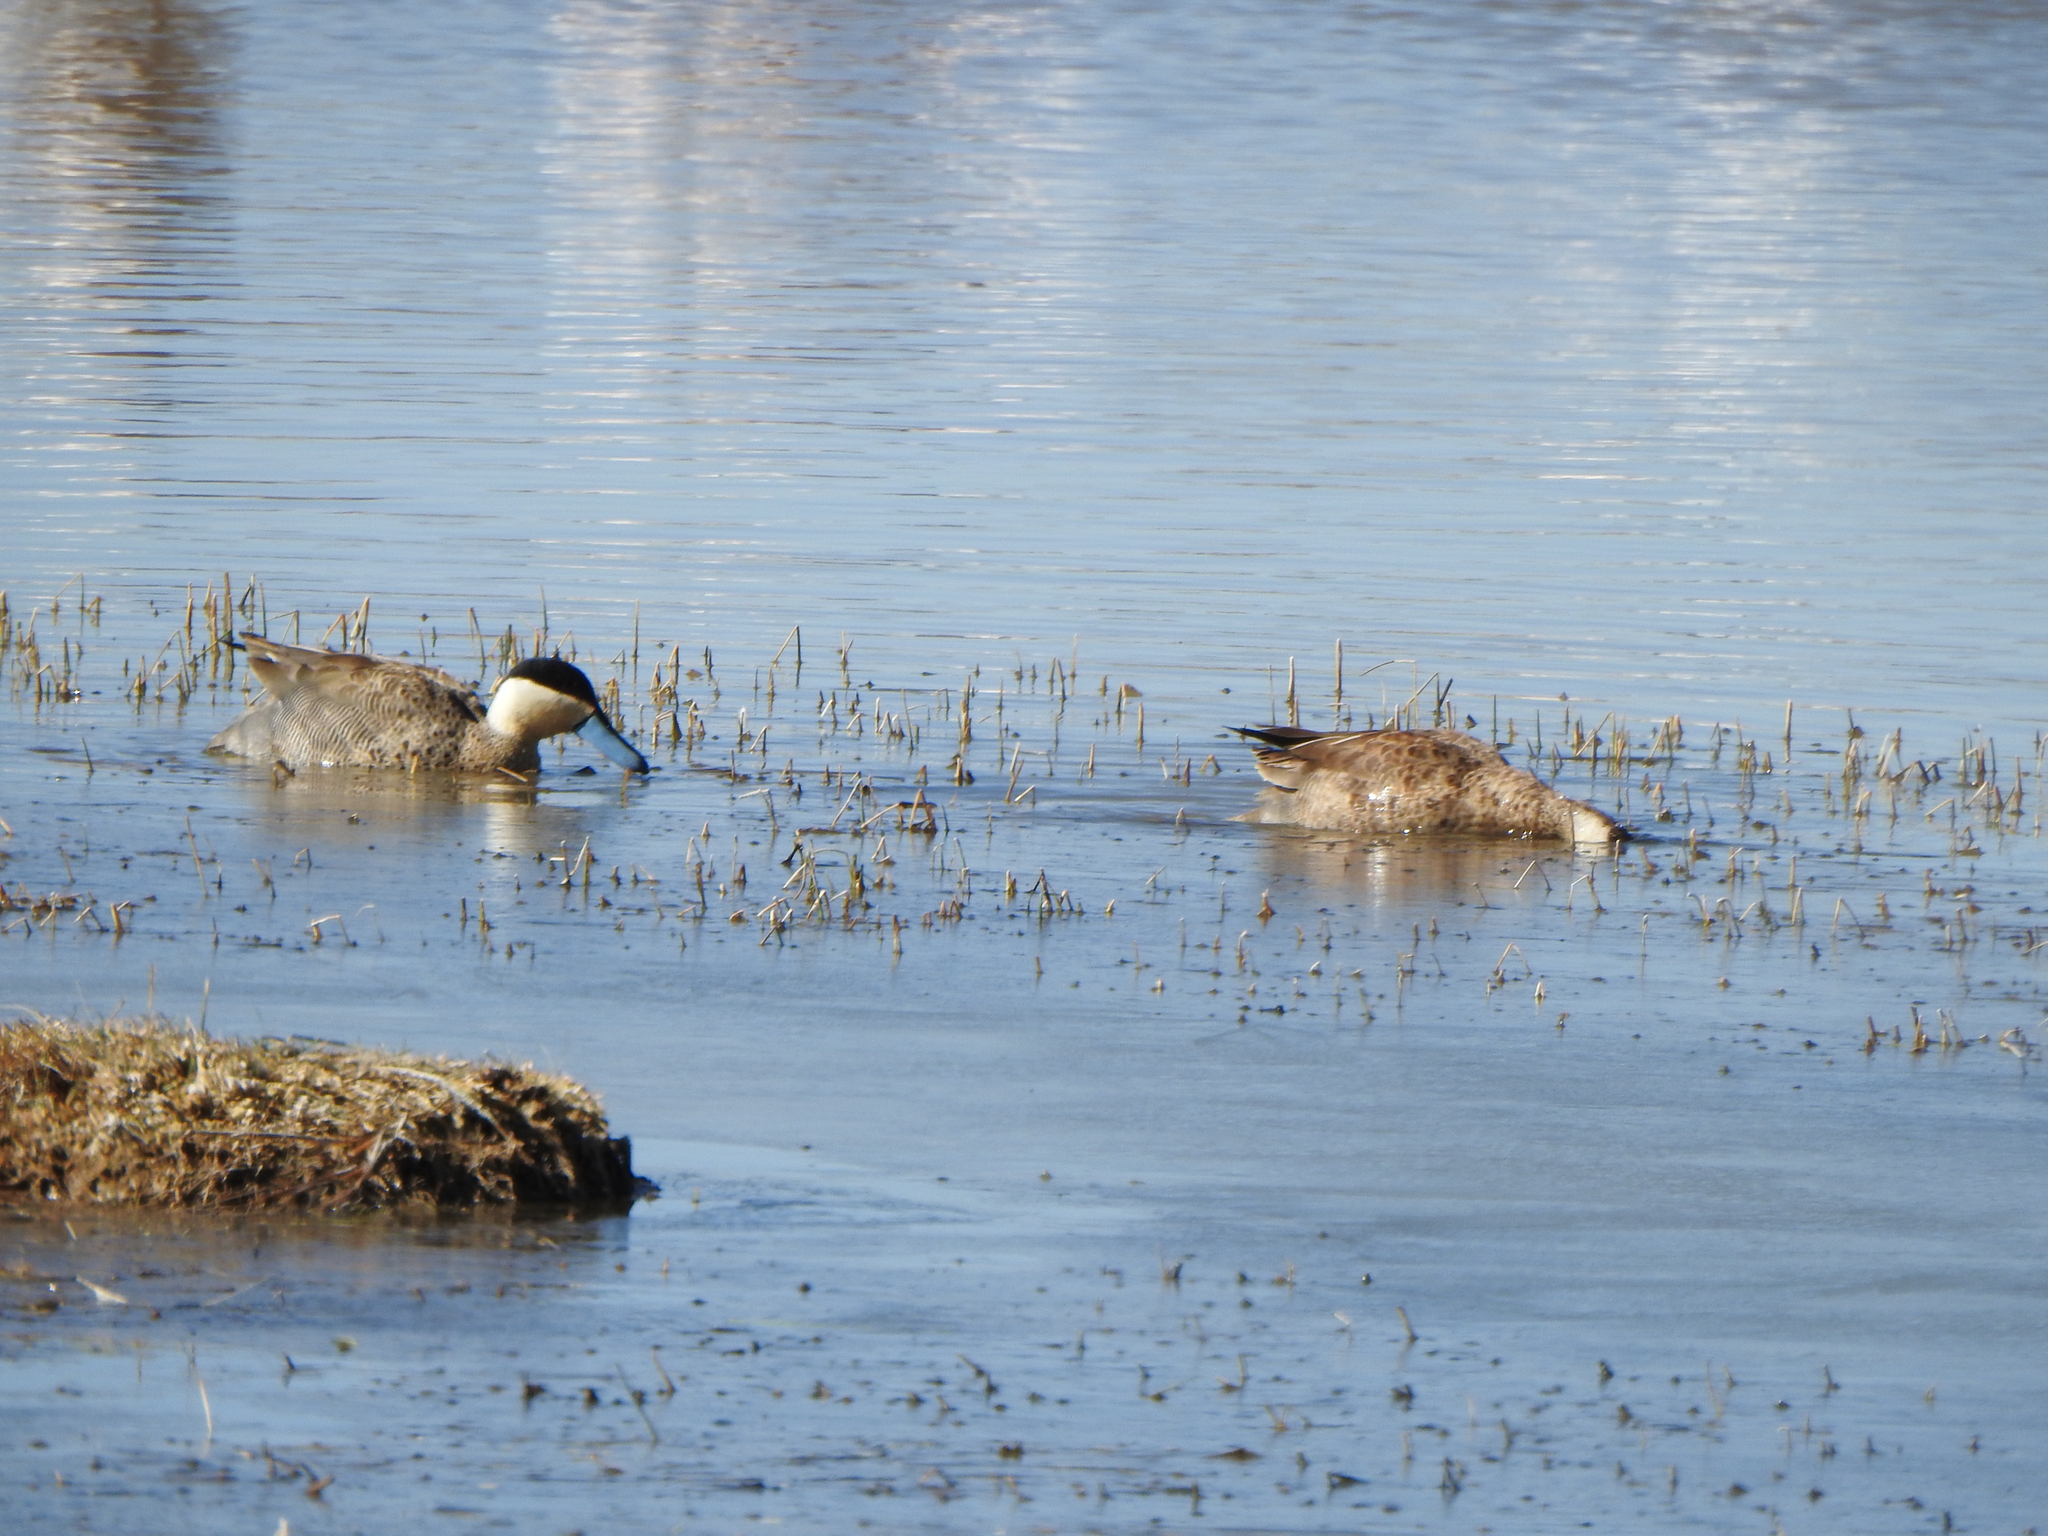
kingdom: Animalia
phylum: Chordata
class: Aves
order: Anseriformes
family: Anatidae
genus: Spatula
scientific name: Spatula puna
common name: Puna teal
